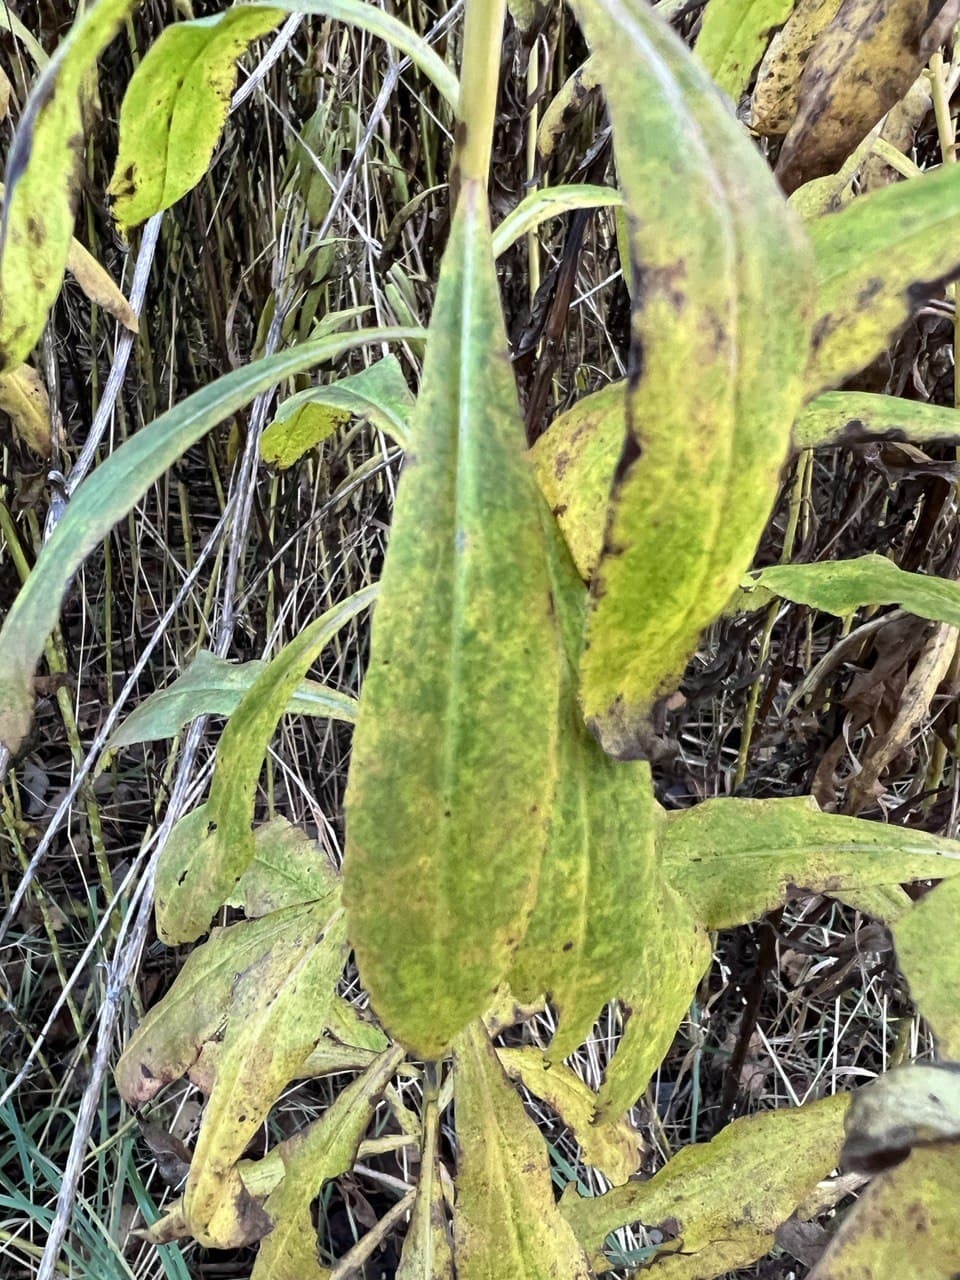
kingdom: Plantae
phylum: Tracheophyta
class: Magnoliopsida
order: Asterales
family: Asteraceae
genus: Solidago
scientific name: Solidago gigantea
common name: Giant goldenrod
